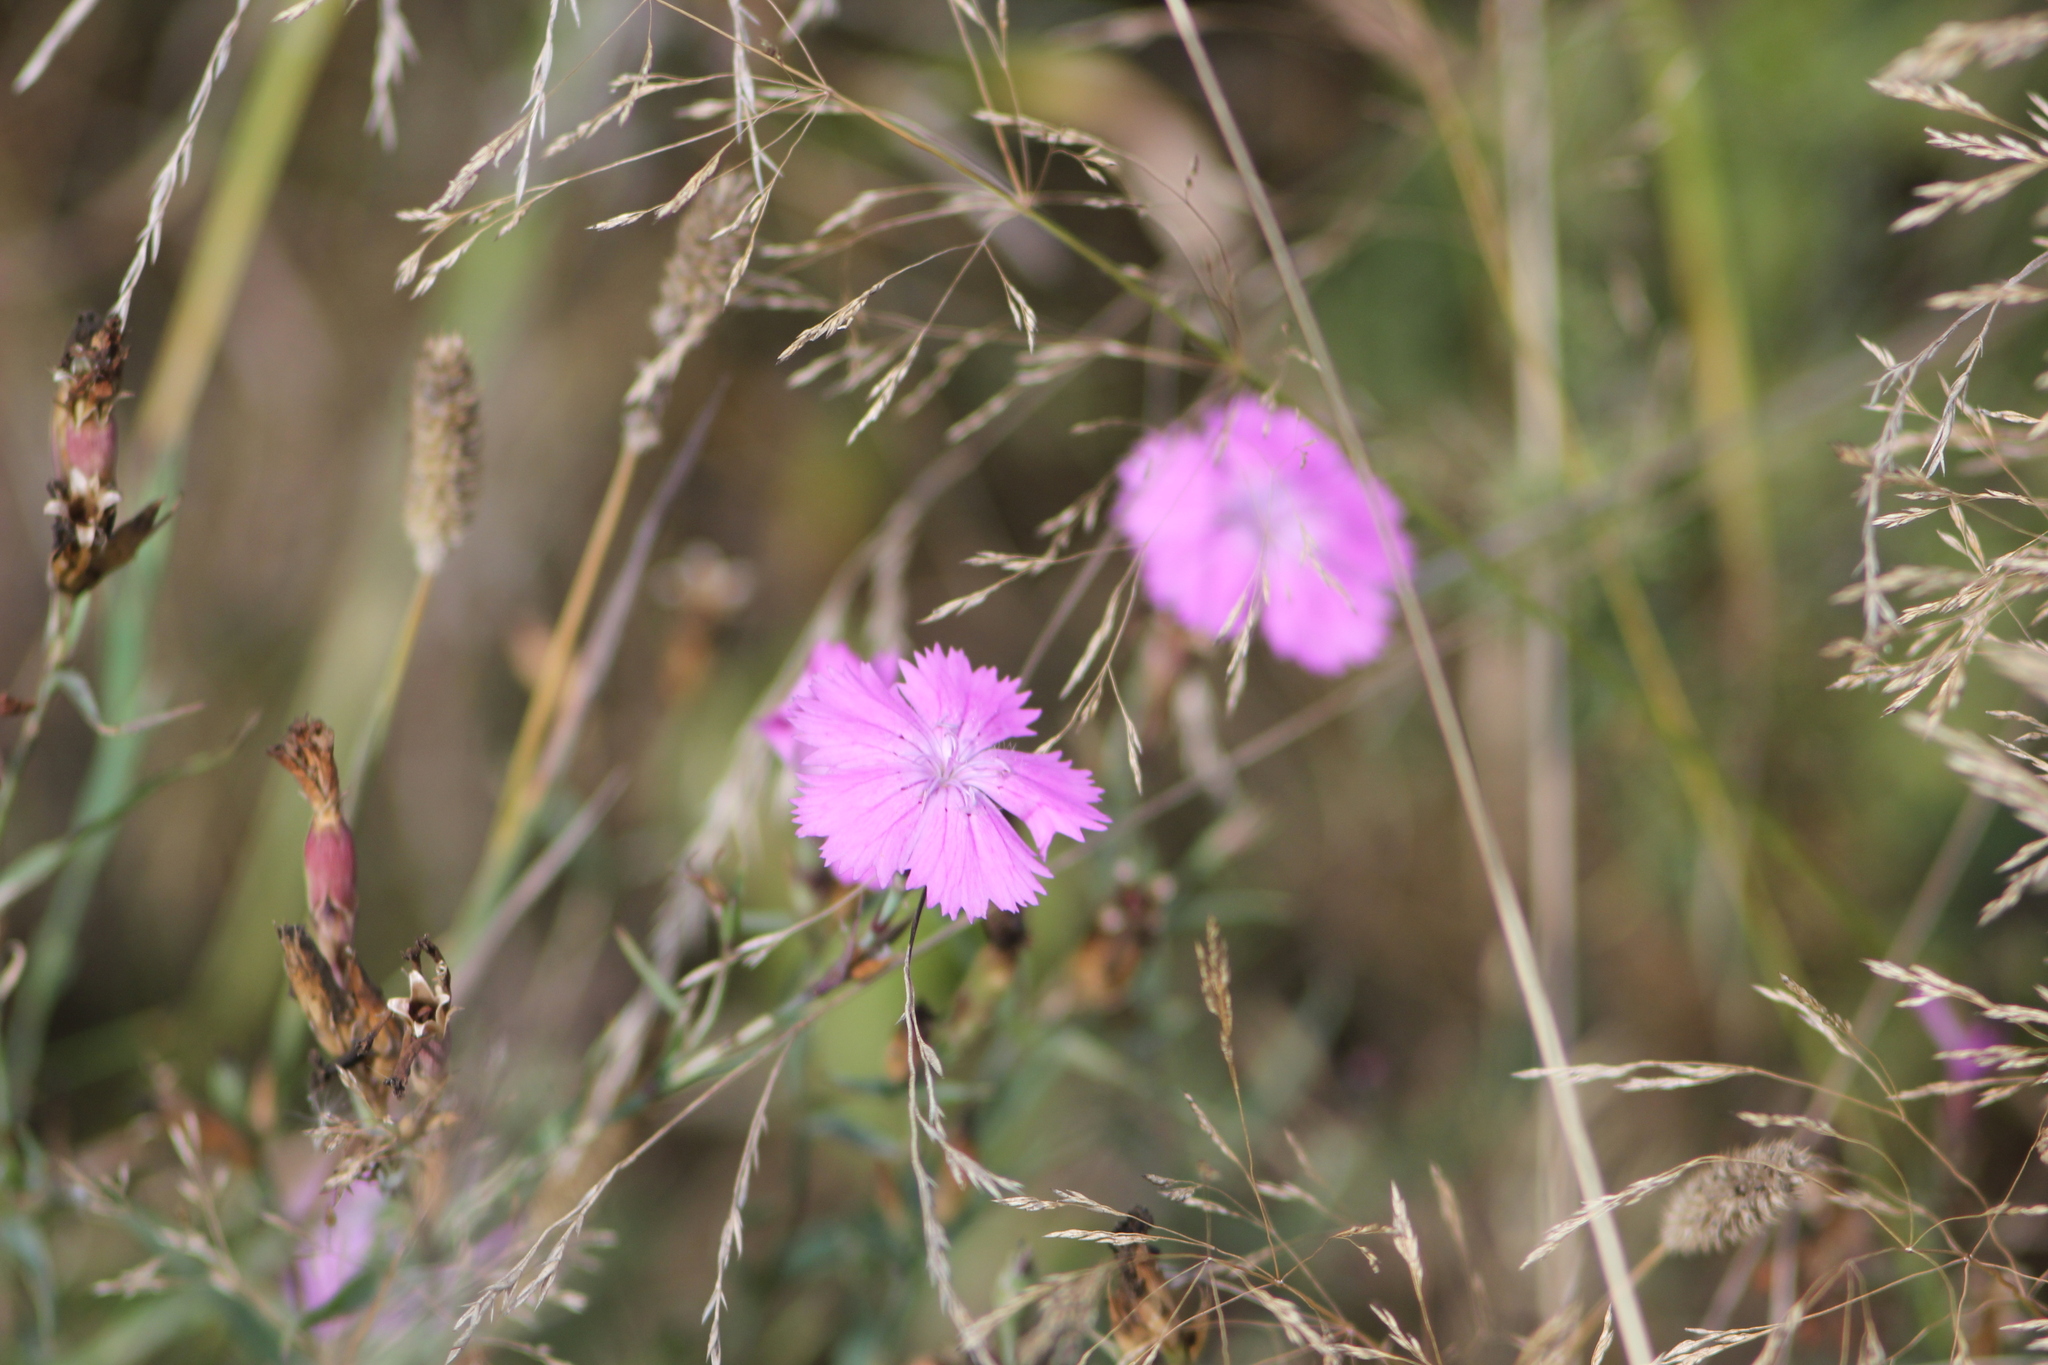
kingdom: Plantae
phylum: Tracheophyta
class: Magnoliopsida
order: Caryophyllales
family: Caryophyllaceae
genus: Dianthus
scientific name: Dianthus chinensis
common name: Rainbow pink
